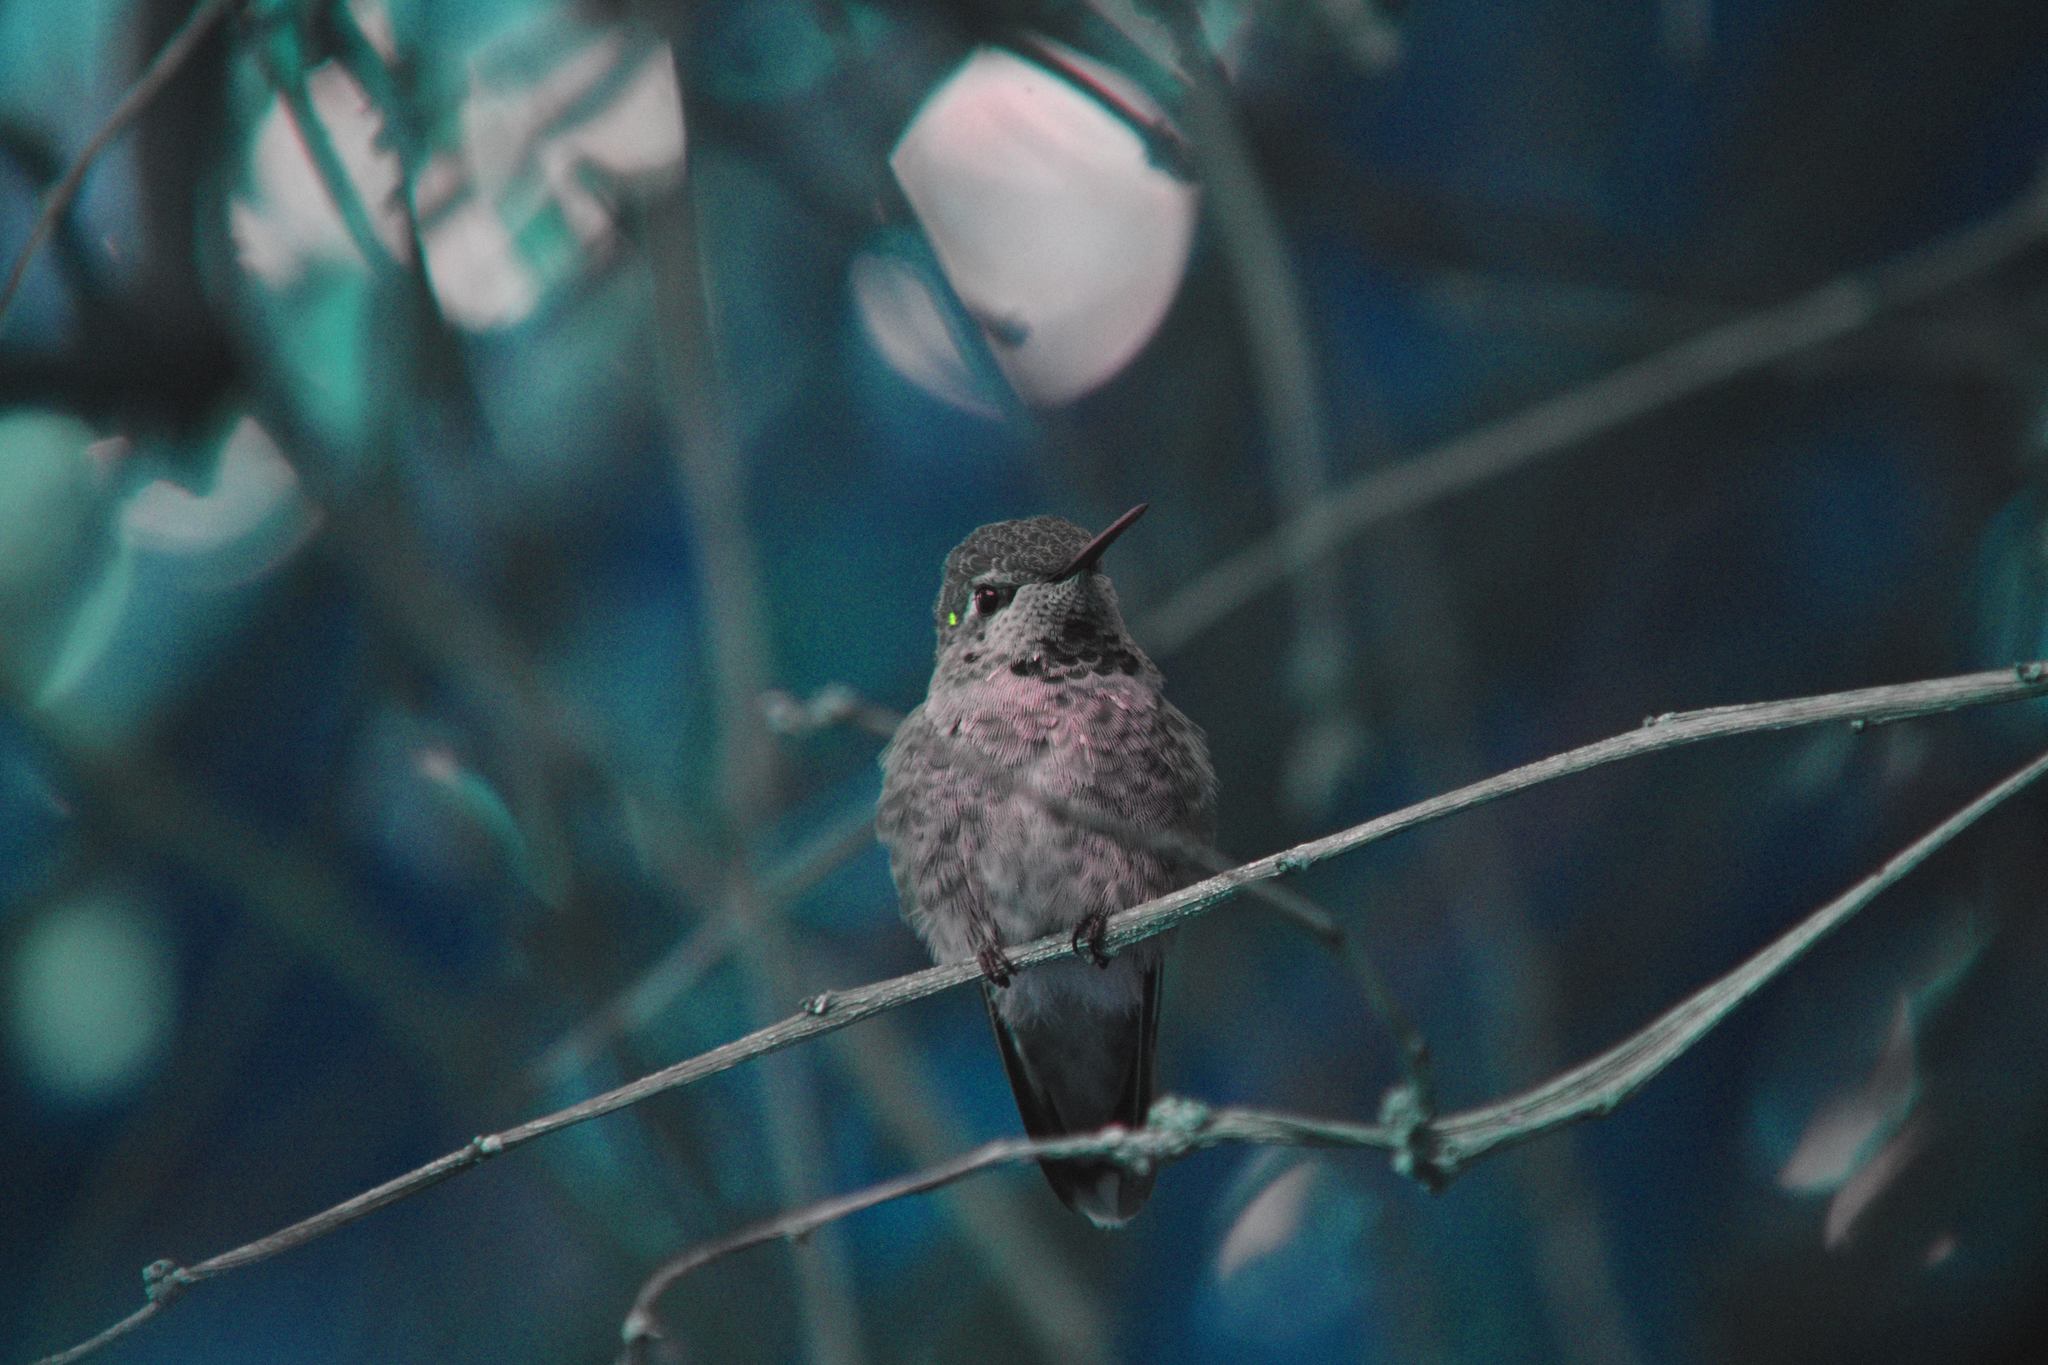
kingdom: Animalia
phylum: Chordata
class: Aves
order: Apodiformes
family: Trochilidae
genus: Calypte
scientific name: Calypte anna
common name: Anna's hummingbird
